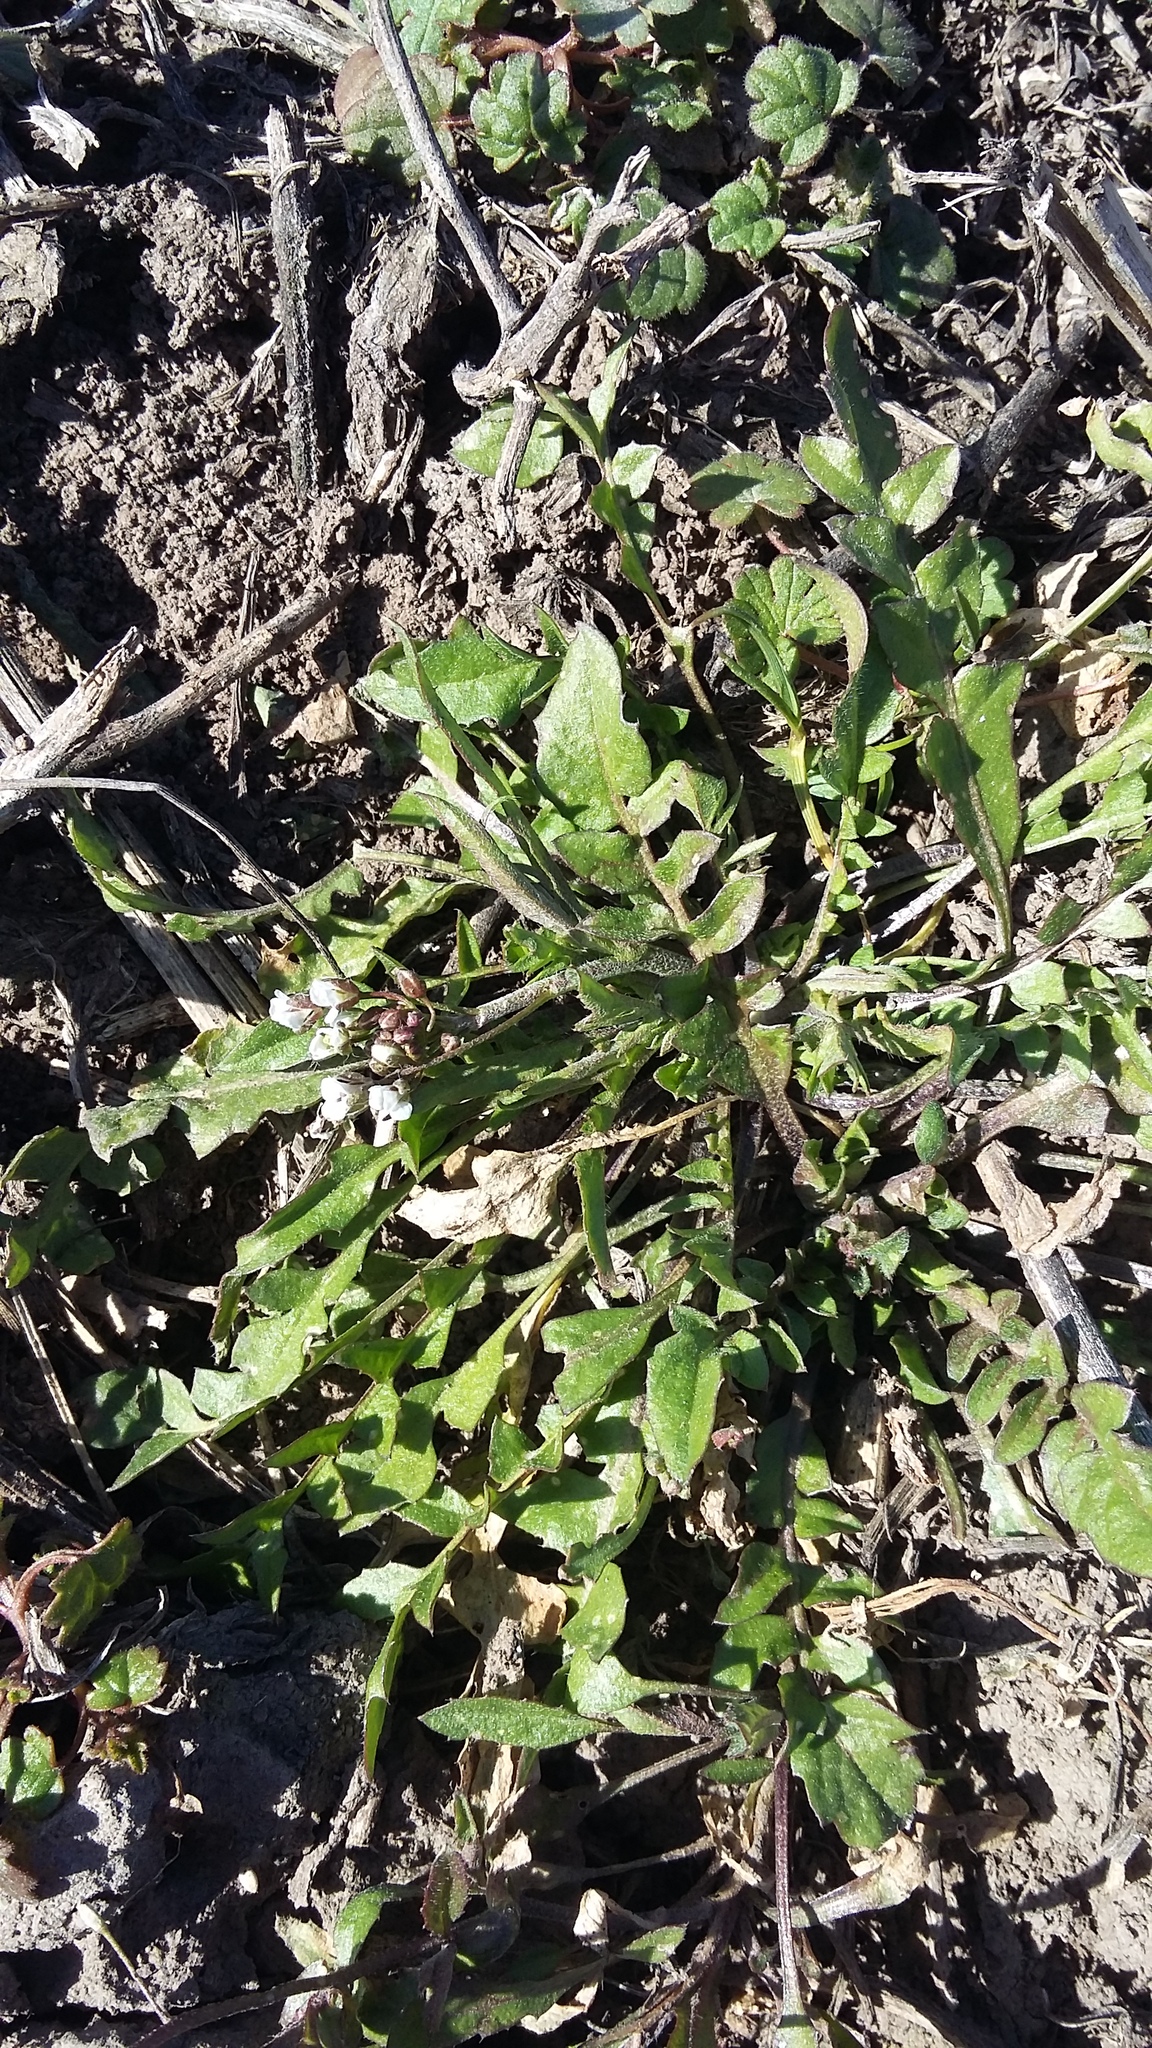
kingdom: Plantae
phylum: Tracheophyta
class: Magnoliopsida
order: Brassicales
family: Brassicaceae
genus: Capsella
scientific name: Capsella bursa-pastoris
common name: Shepherd's purse
